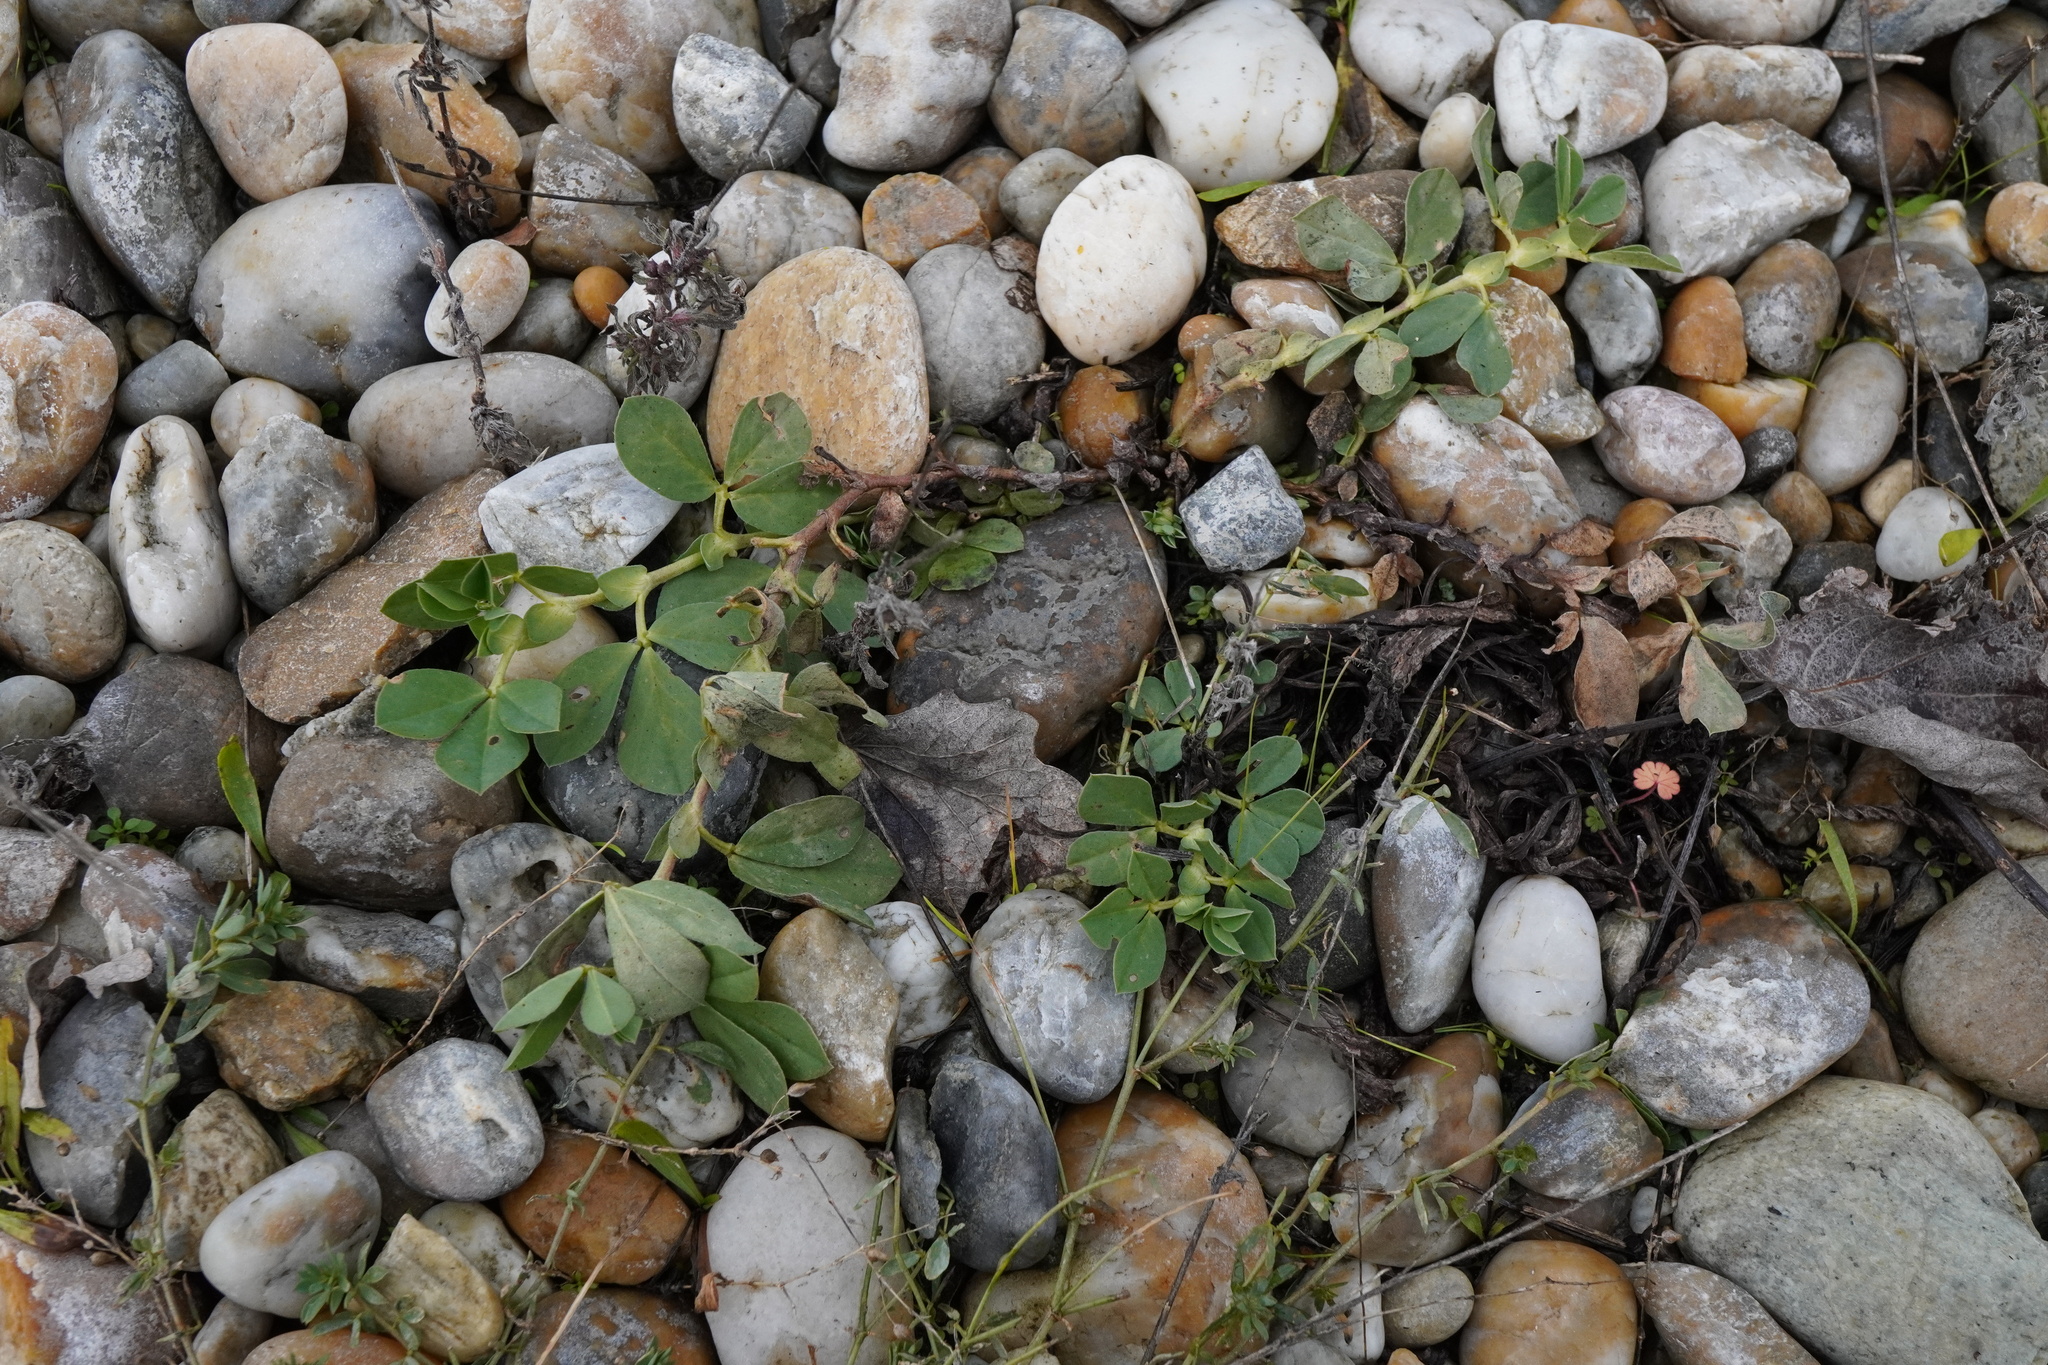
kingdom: Plantae
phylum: Tracheophyta
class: Magnoliopsida
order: Fabales
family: Fabaceae
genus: Lotus
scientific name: Lotus maritimus
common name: Dragon's-teeth
